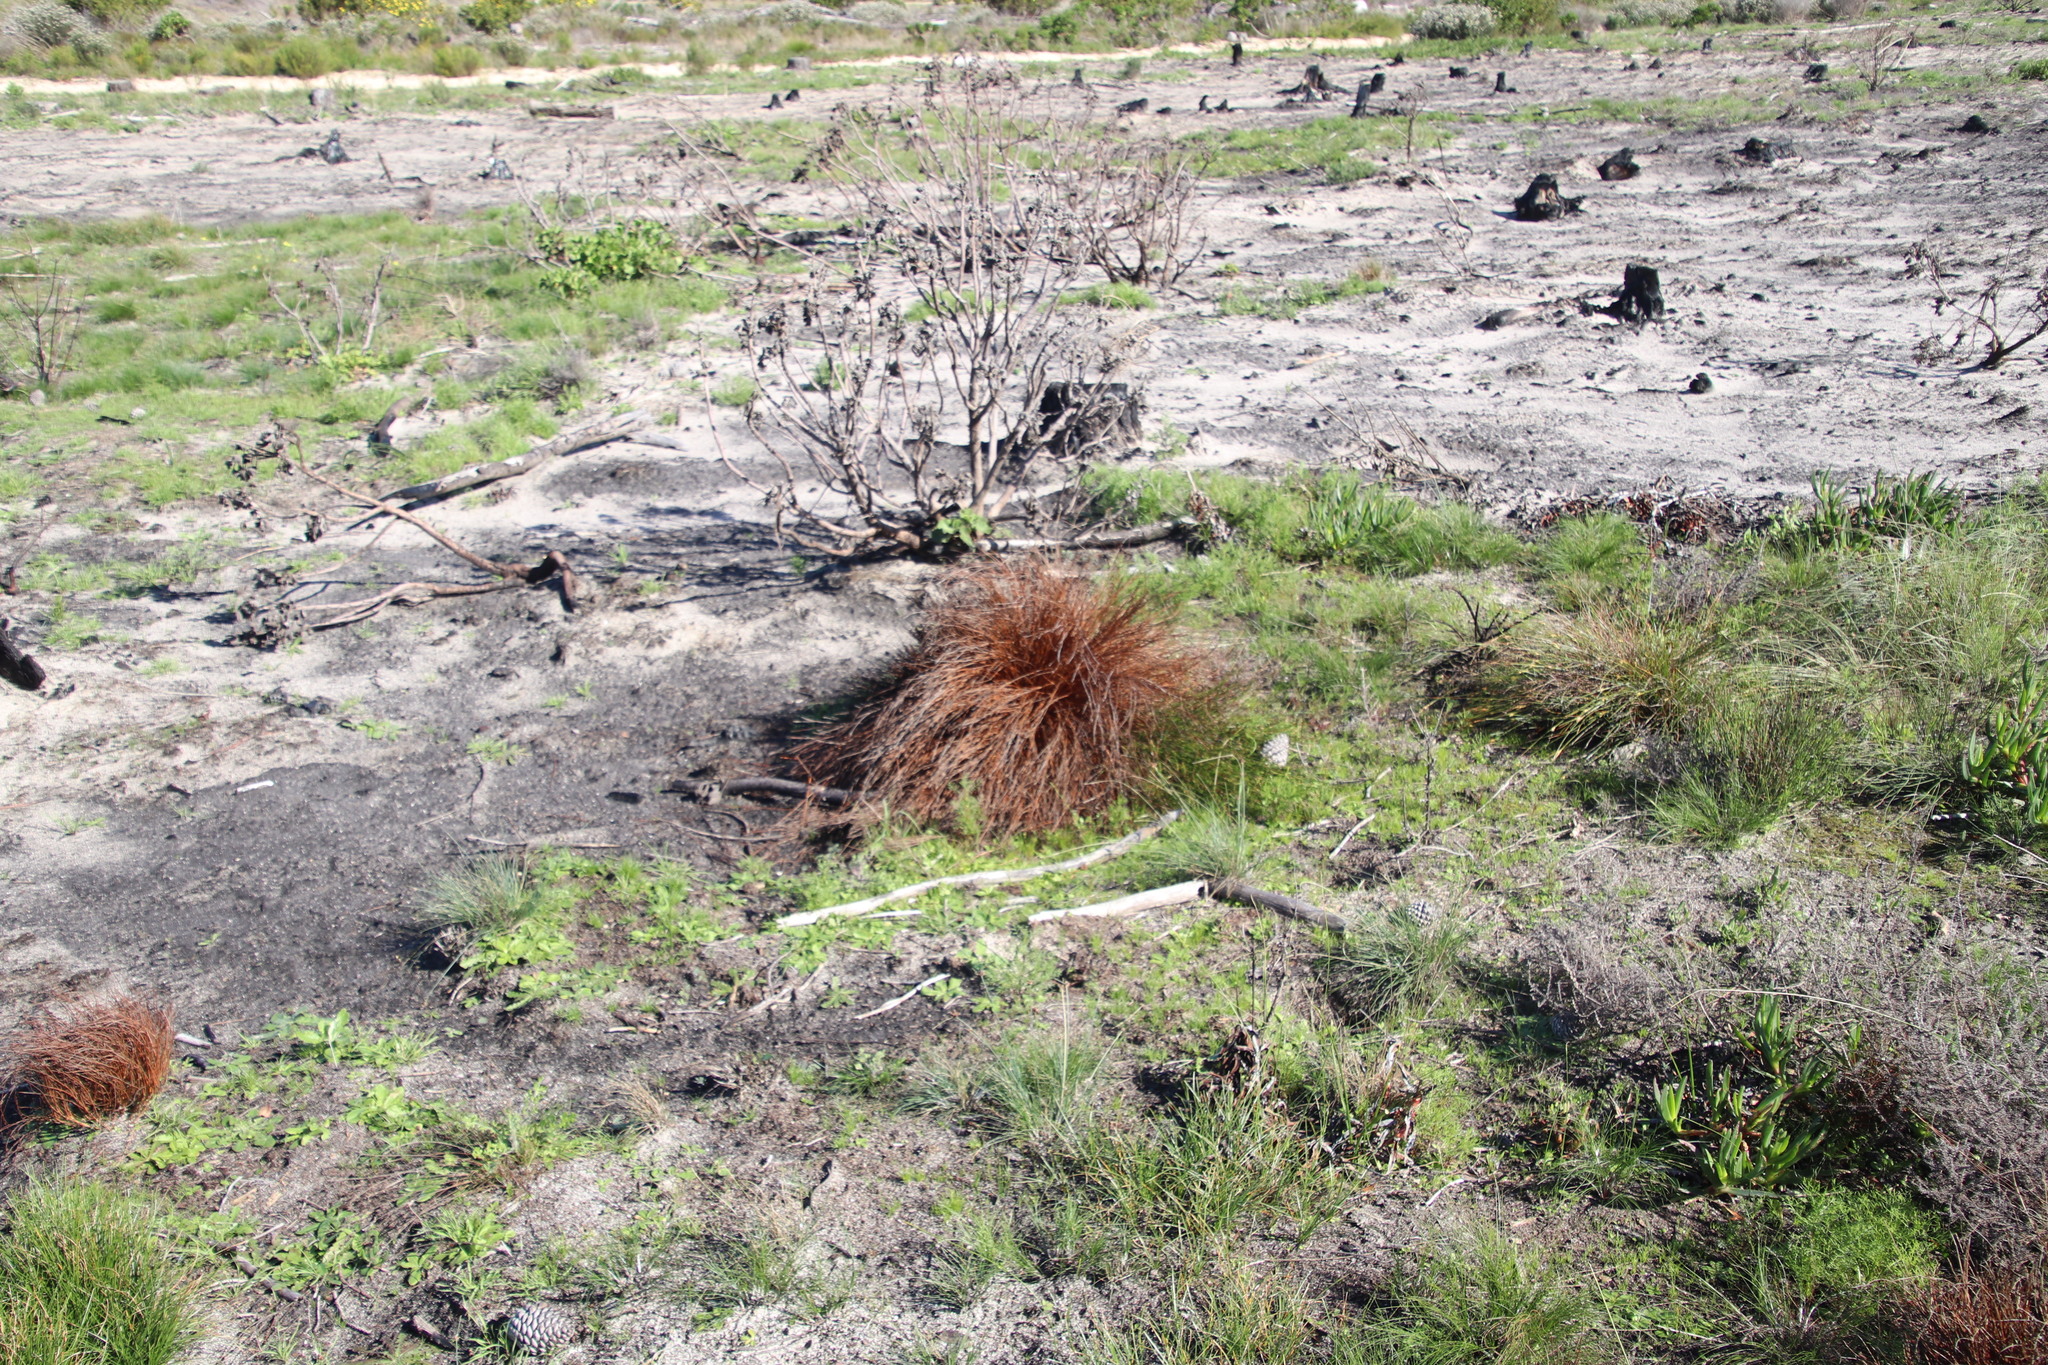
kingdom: Plantae
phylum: Tracheophyta
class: Liliopsida
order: Poales
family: Restionaceae
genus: Restio
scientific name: Restio bifurcus
